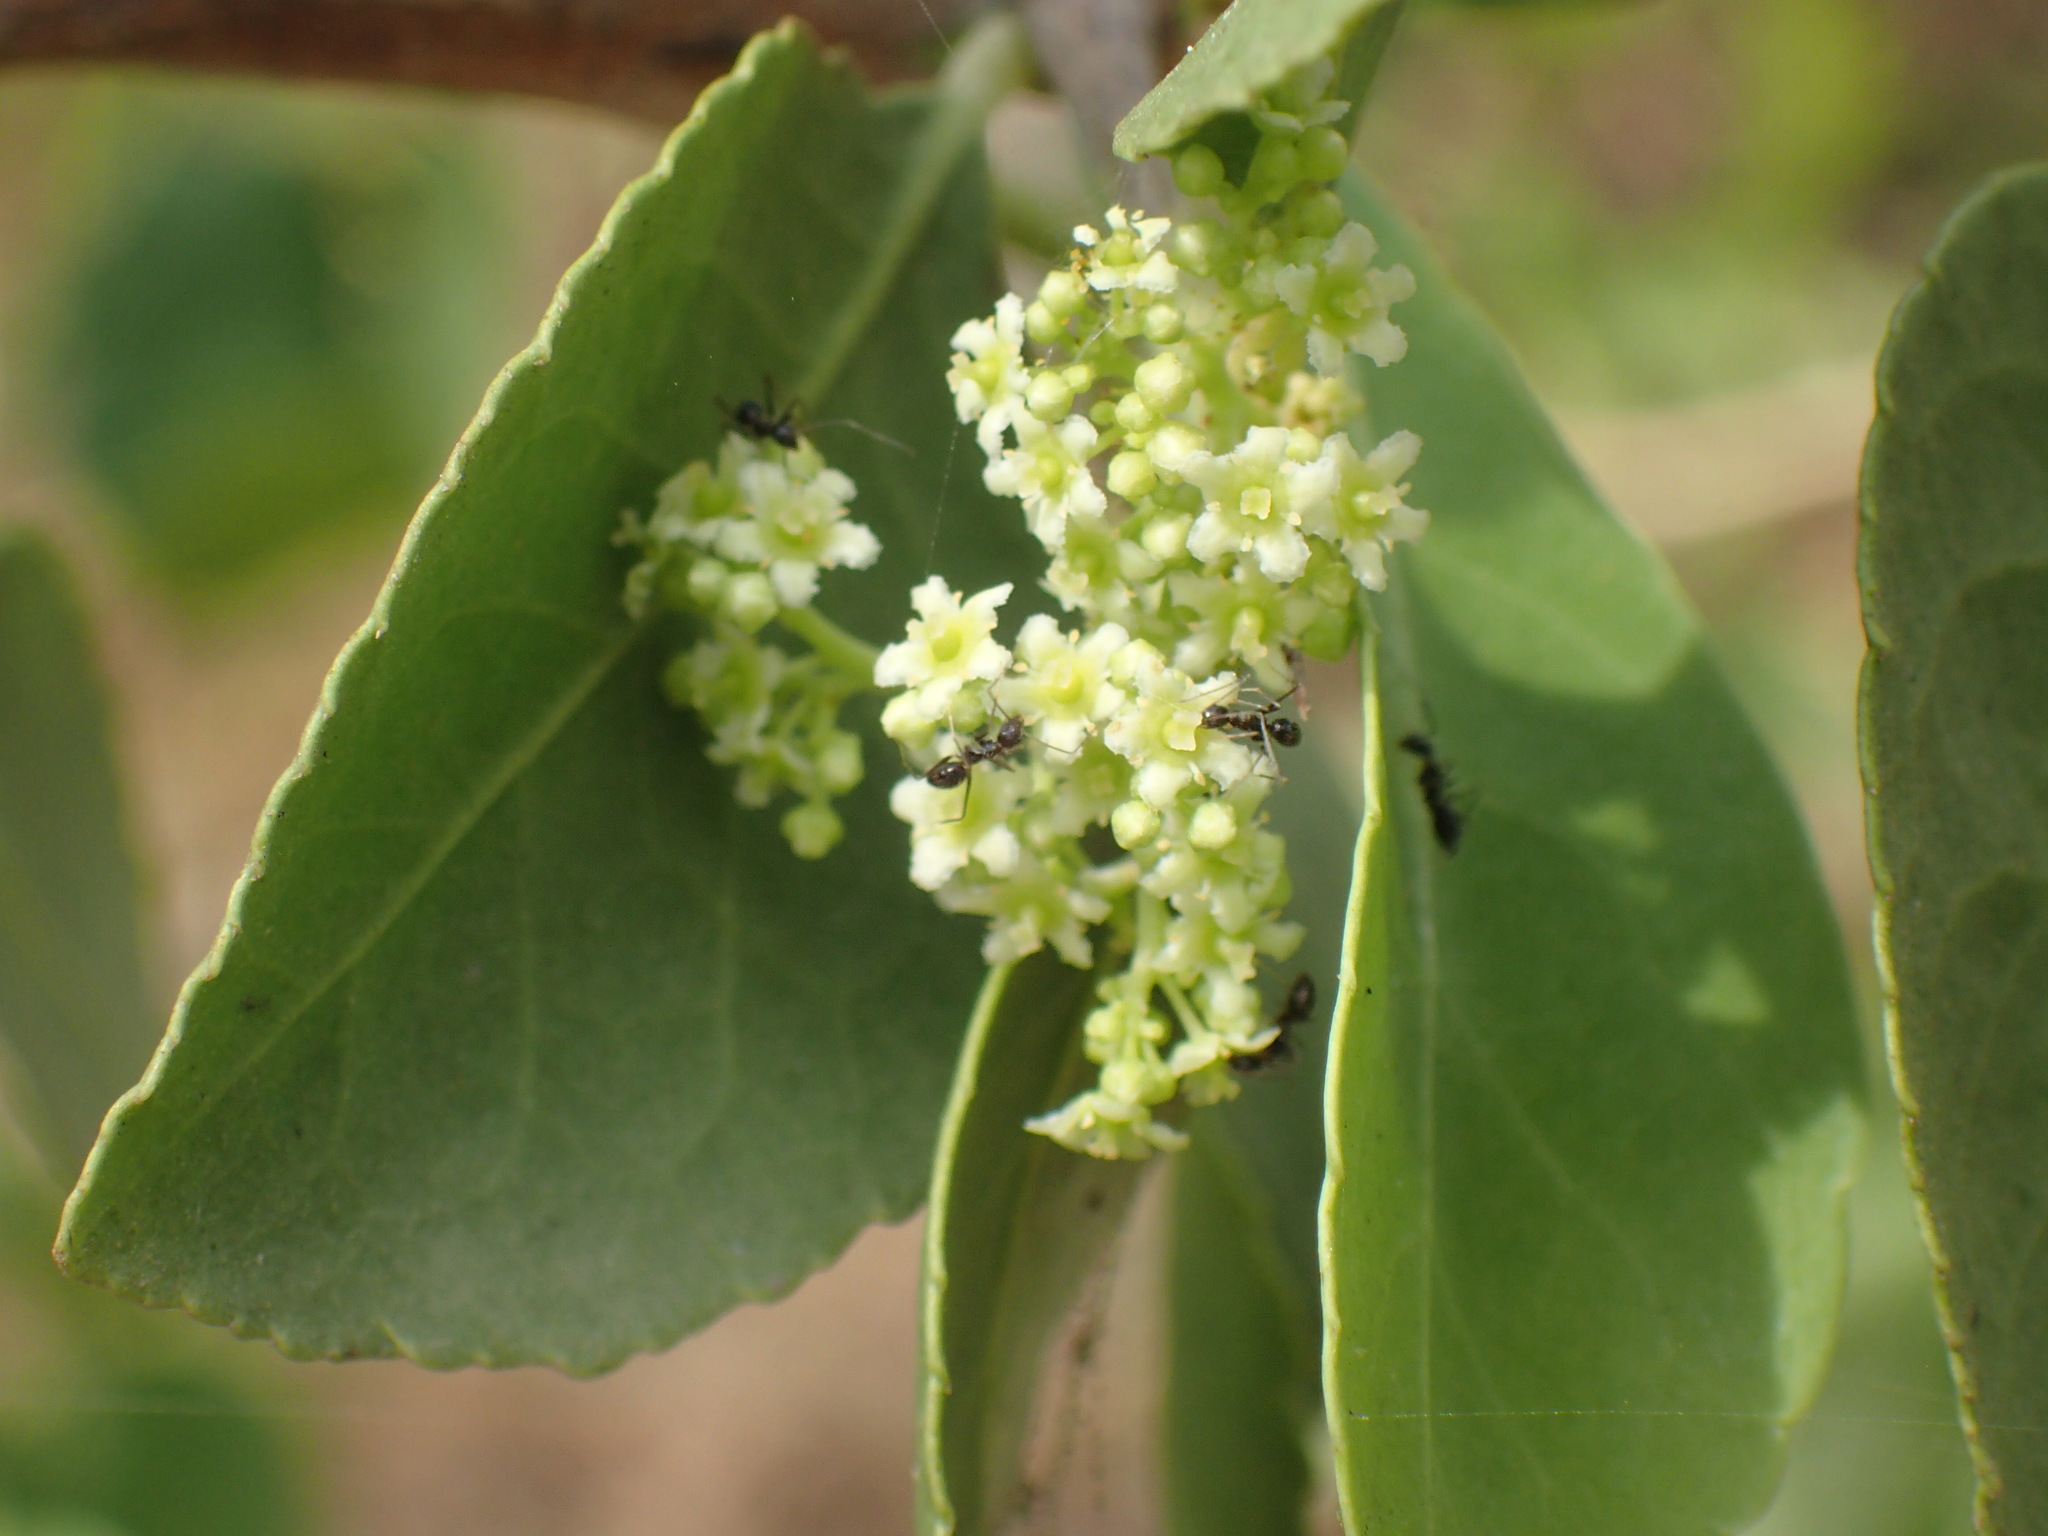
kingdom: Plantae
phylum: Tracheophyta
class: Magnoliopsida
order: Celastrales
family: Celastraceae
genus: Gymnosporia
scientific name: Gymnosporia senegalensis
